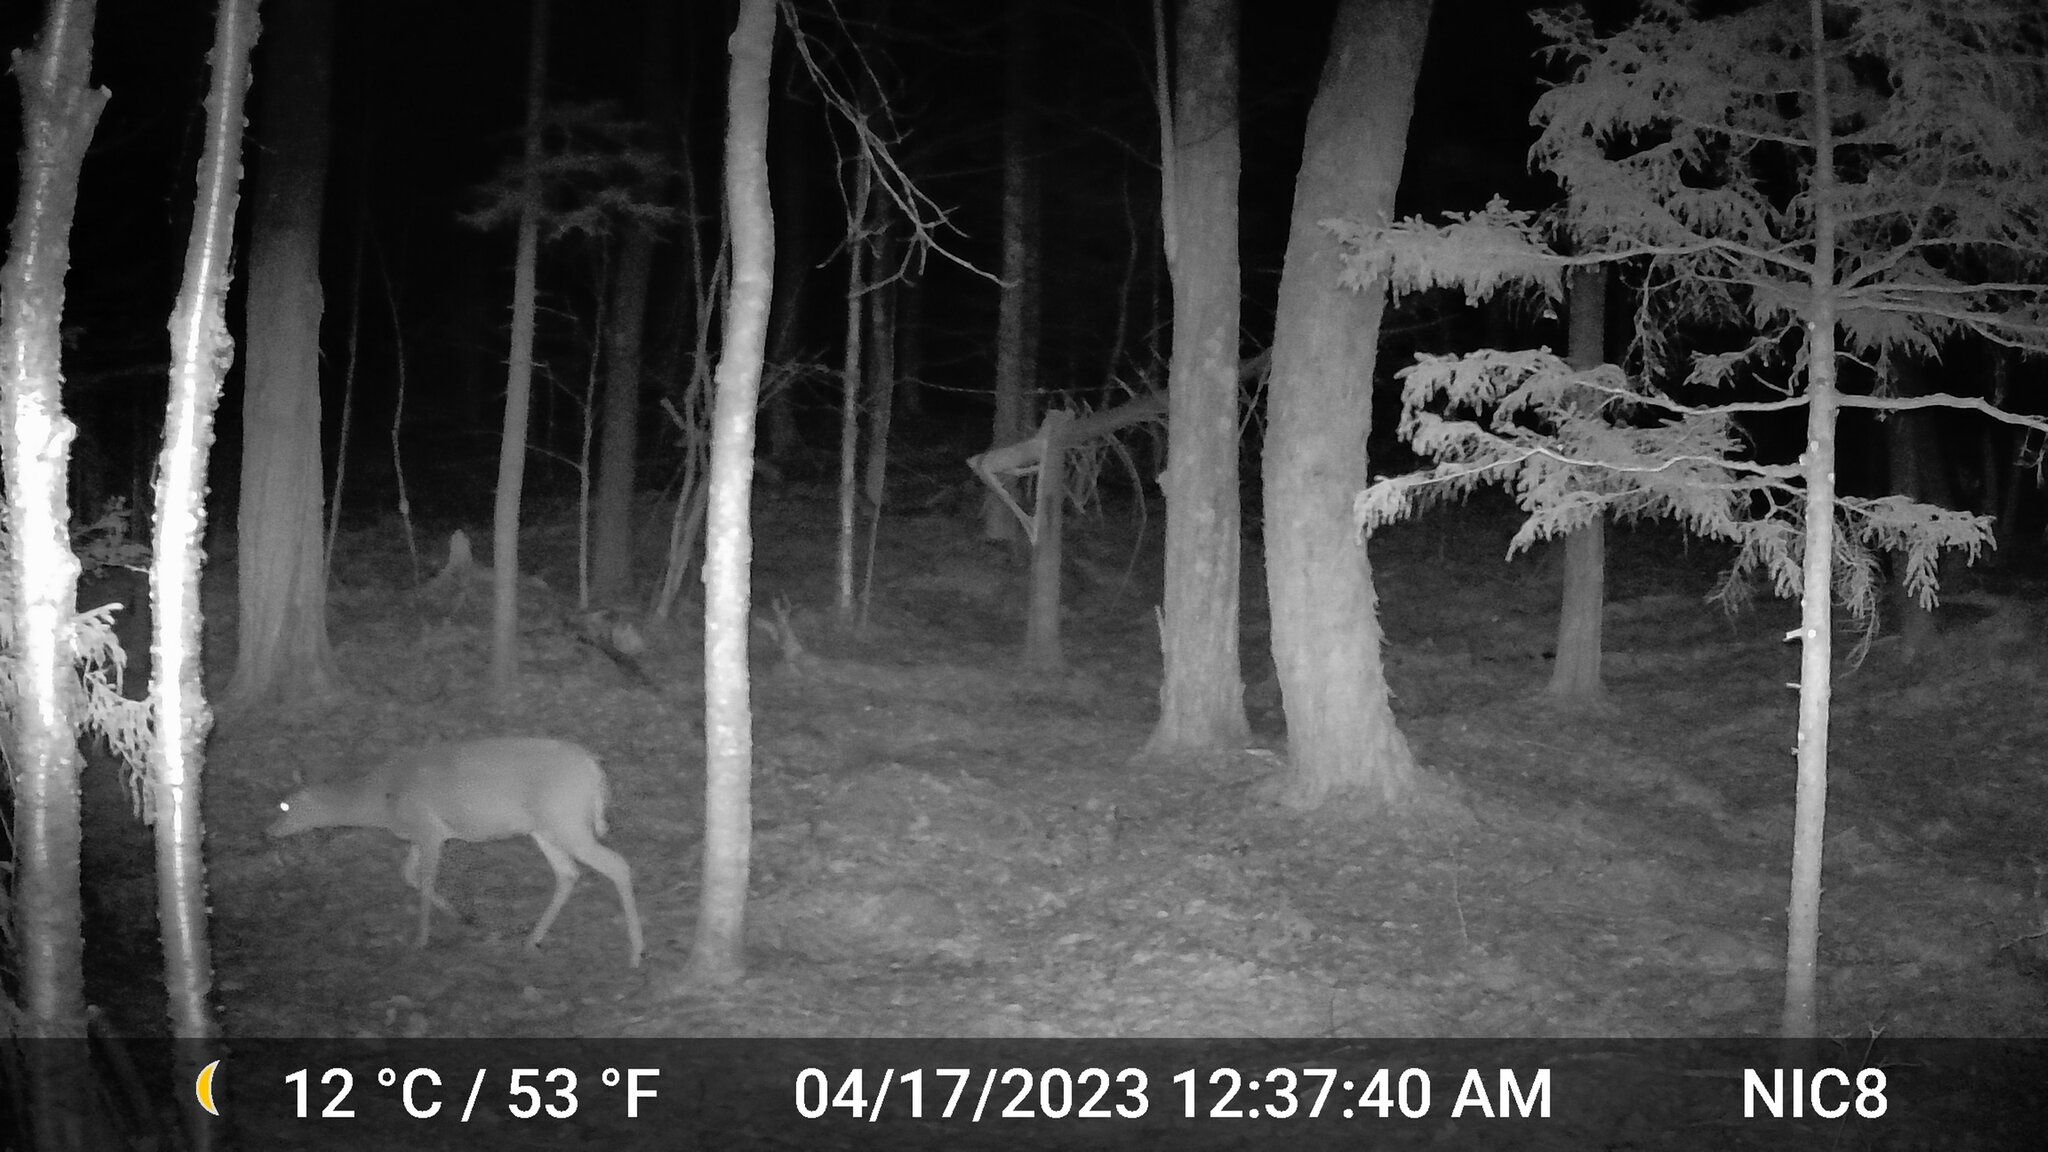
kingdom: Animalia
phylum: Chordata
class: Mammalia
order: Artiodactyla
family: Cervidae
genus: Odocoileus
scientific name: Odocoileus virginianus
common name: White-tailed deer
